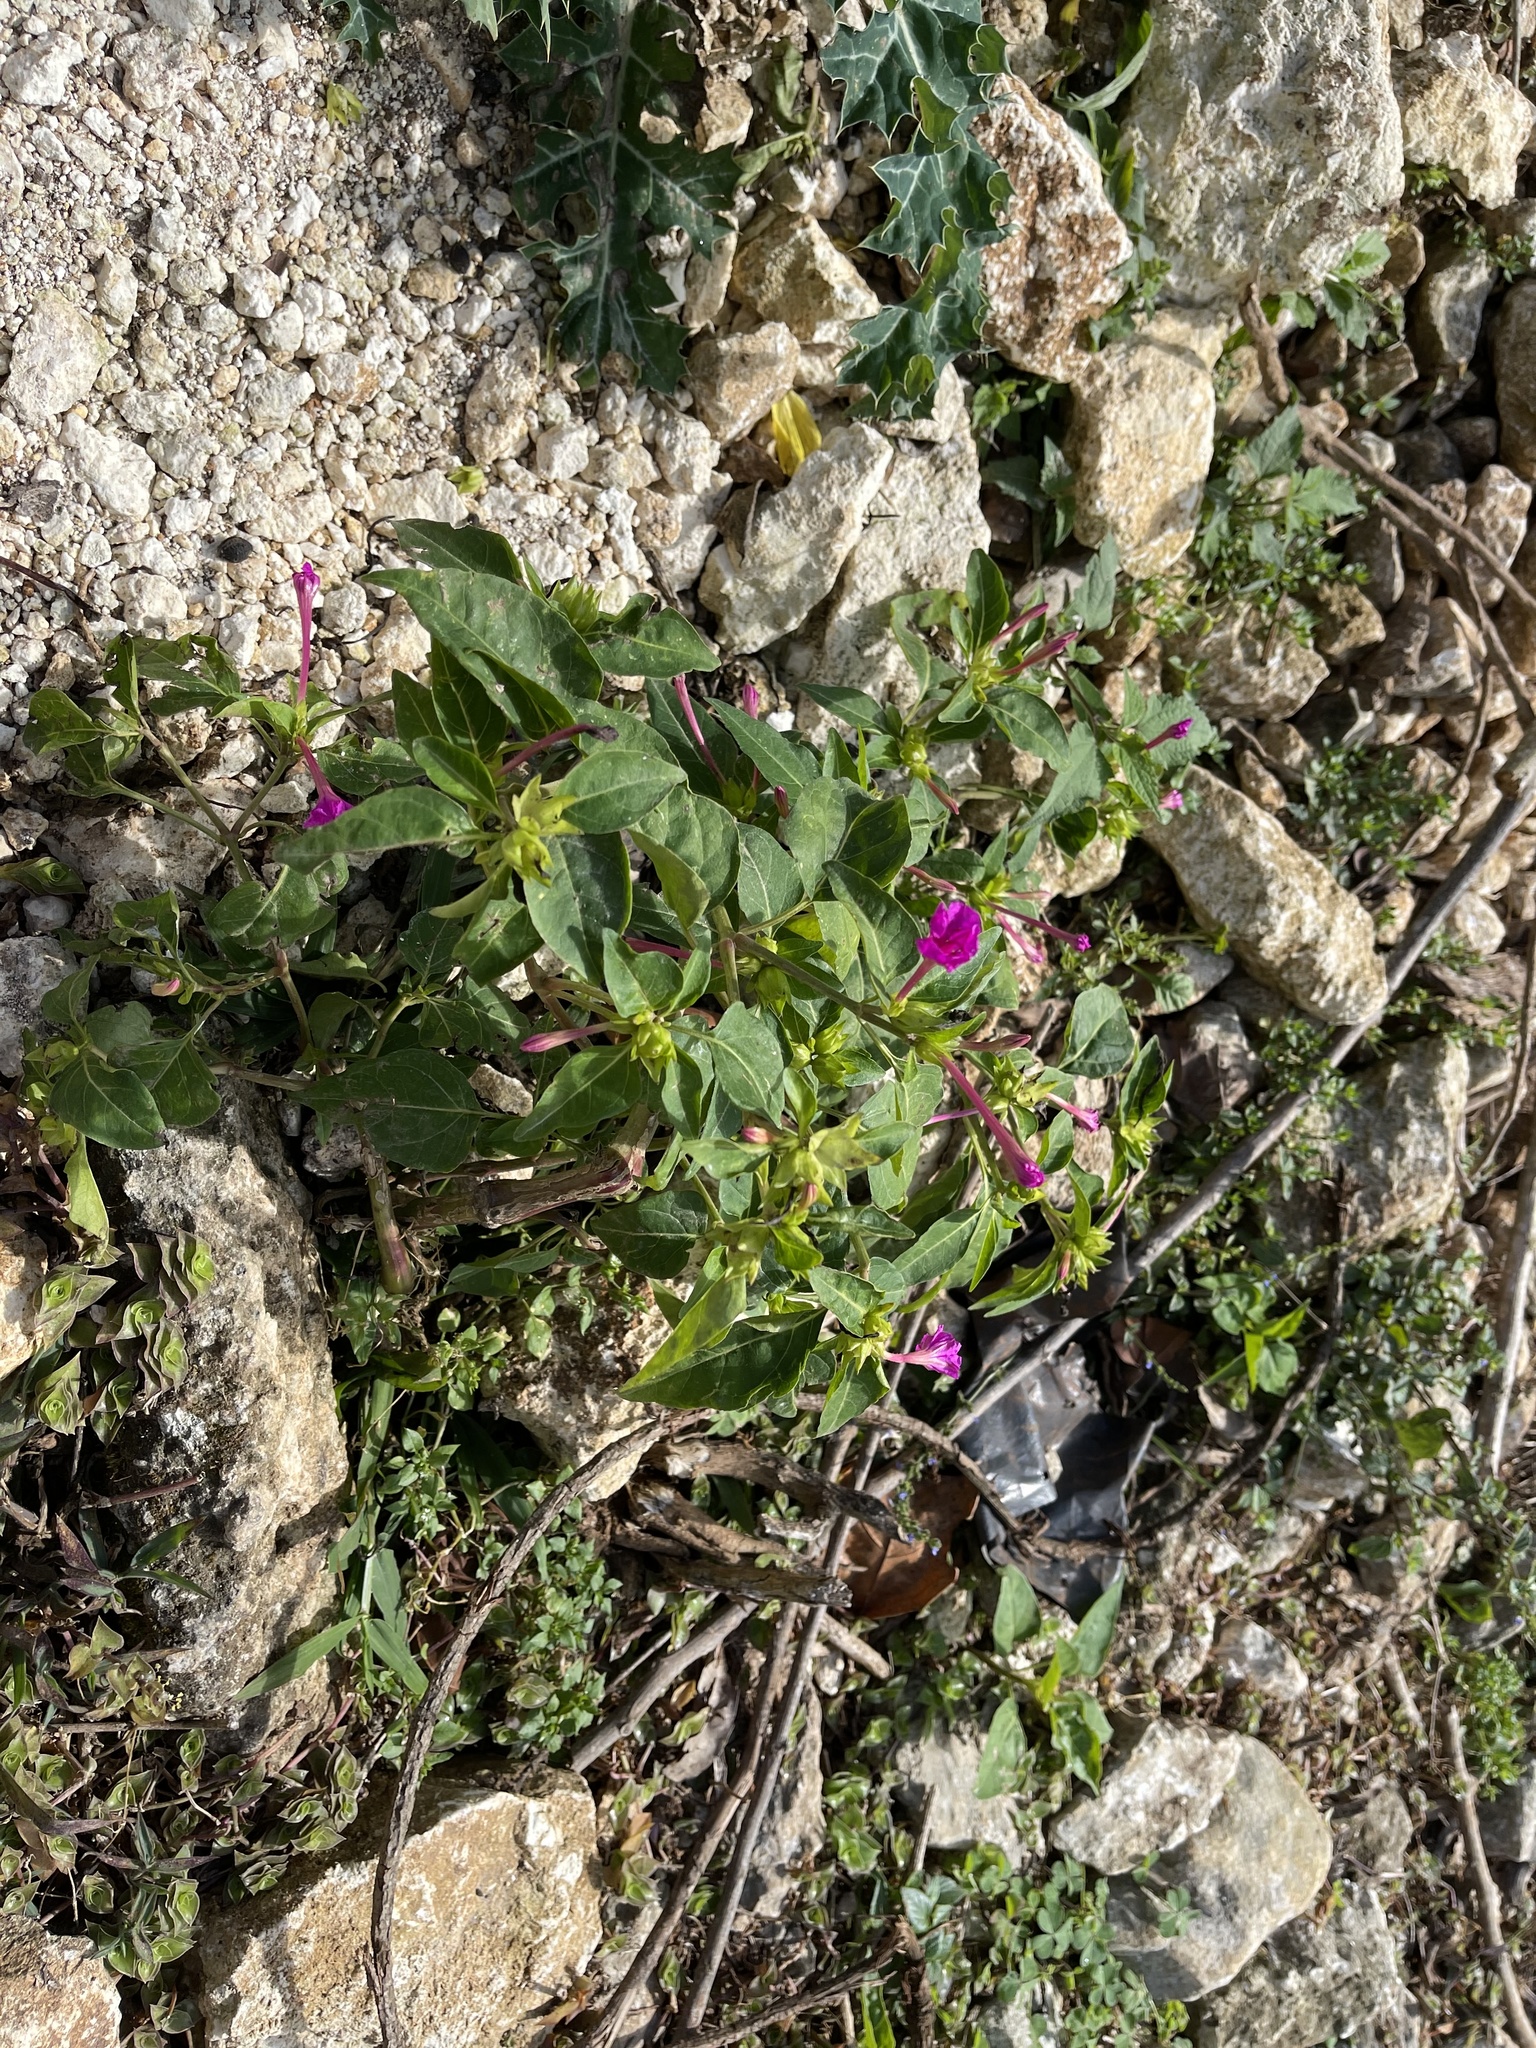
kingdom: Plantae
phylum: Tracheophyta
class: Magnoliopsida
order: Caryophyllales
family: Nyctaginaceae
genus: Mirabilis
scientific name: Mirabilis jalapa
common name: Marvel-of-peru
